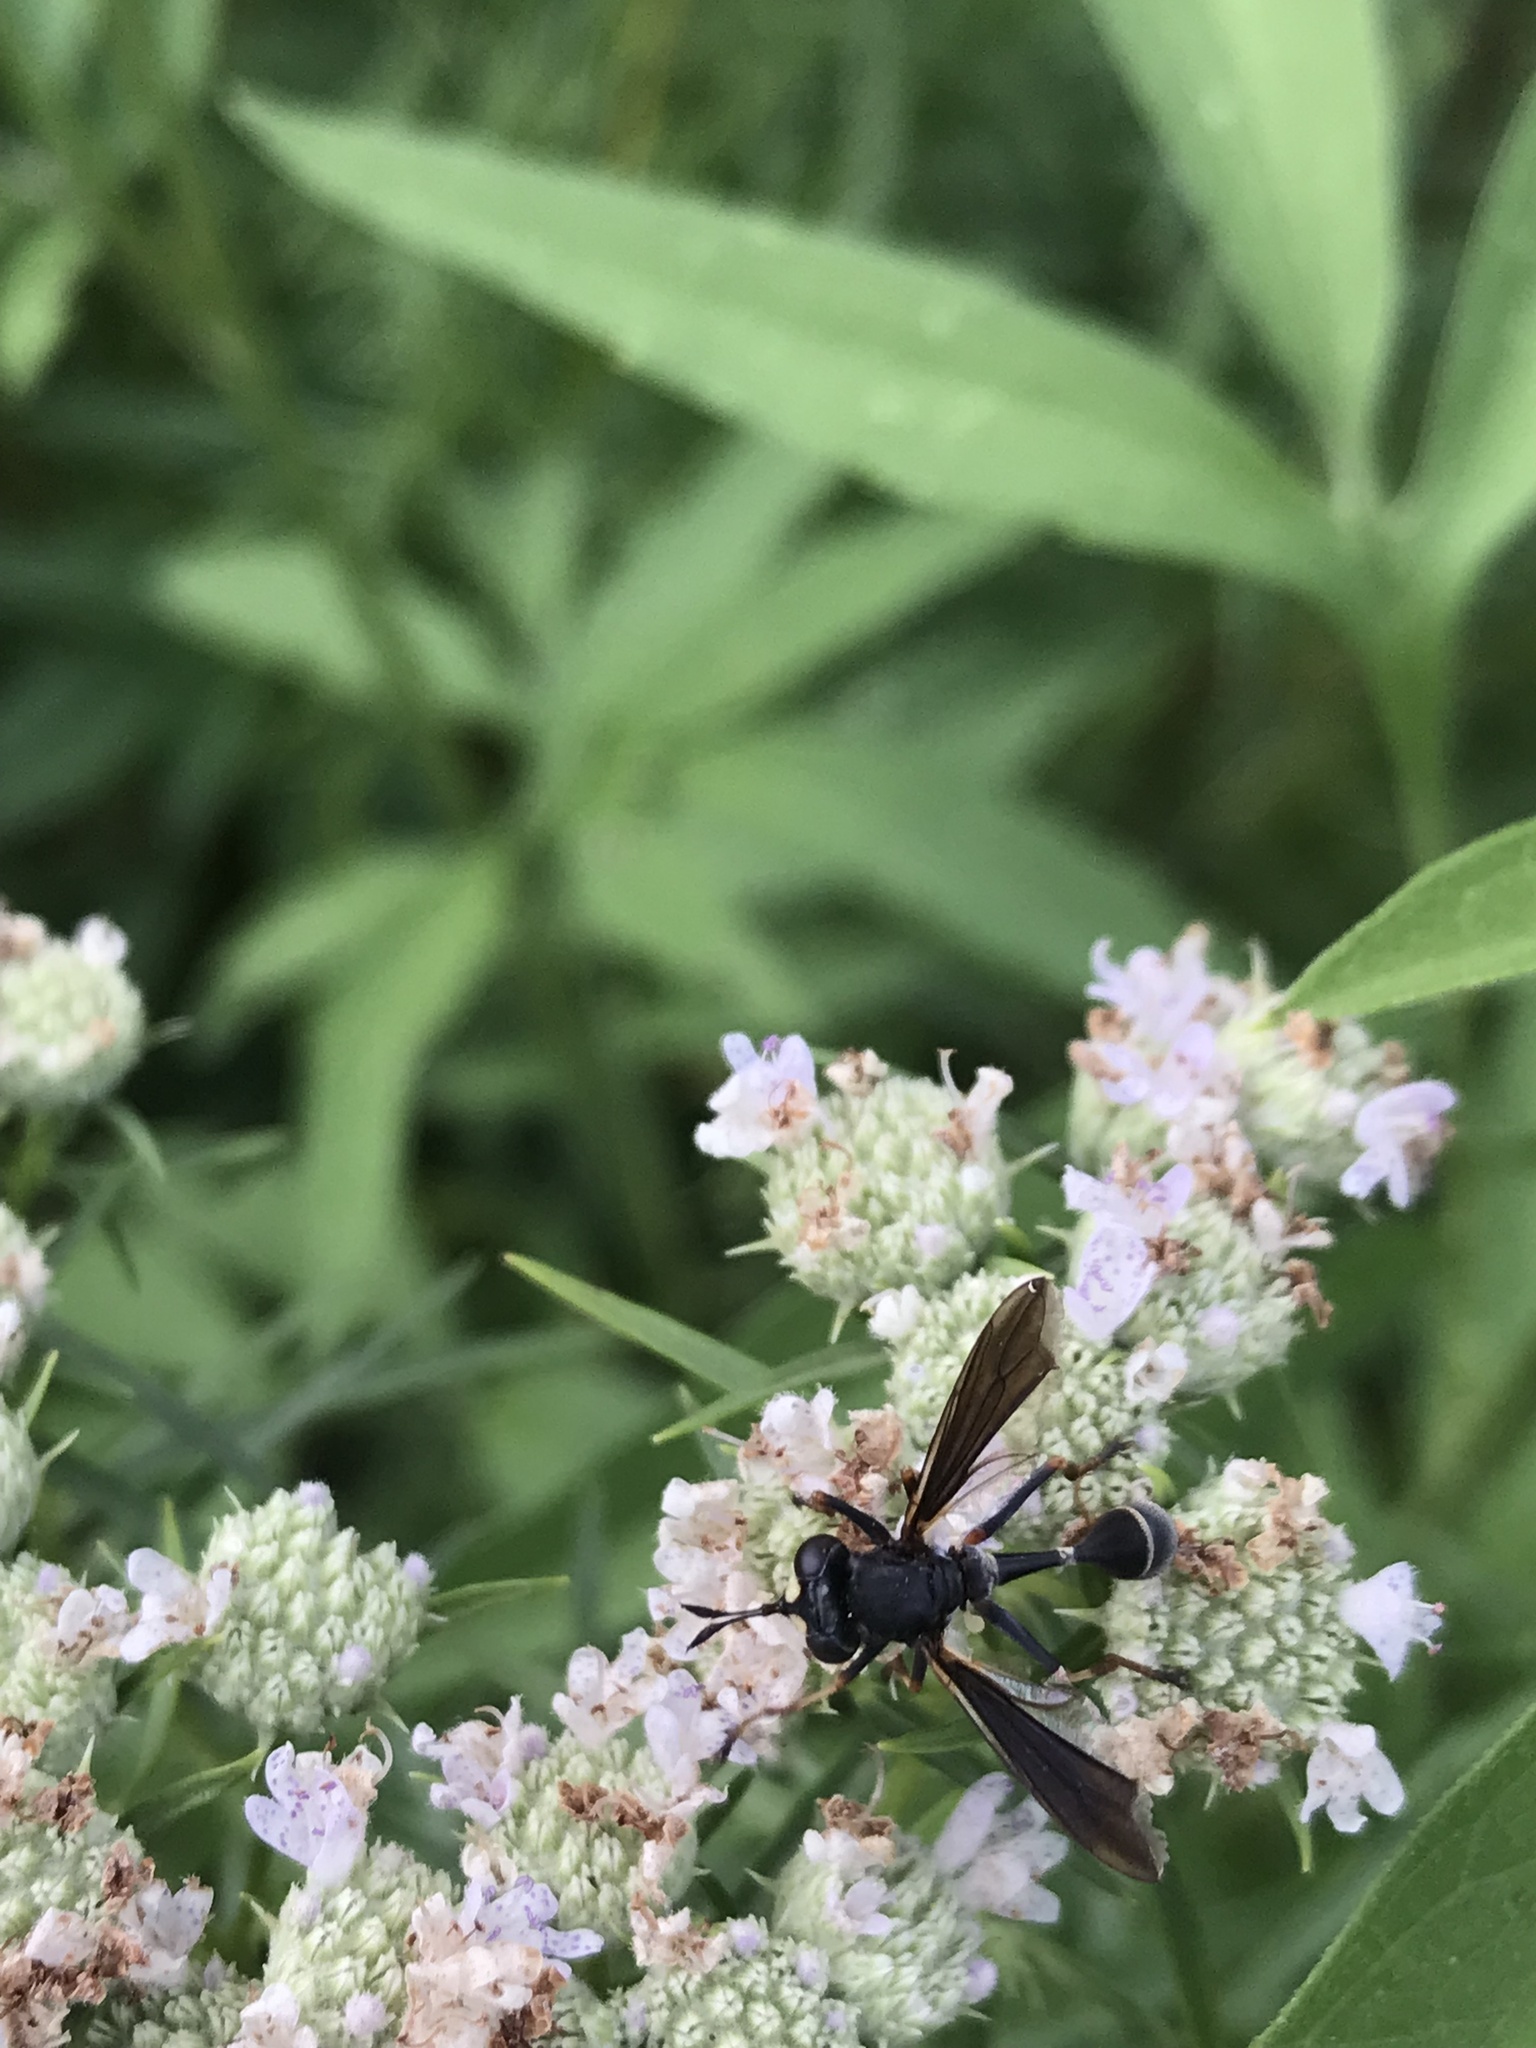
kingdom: Animalia
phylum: Arthropoda
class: Insecta
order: Diptera
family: Conopidae
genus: Physocephala
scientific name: Physocephala tibialis
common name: Common eastern physocephala
